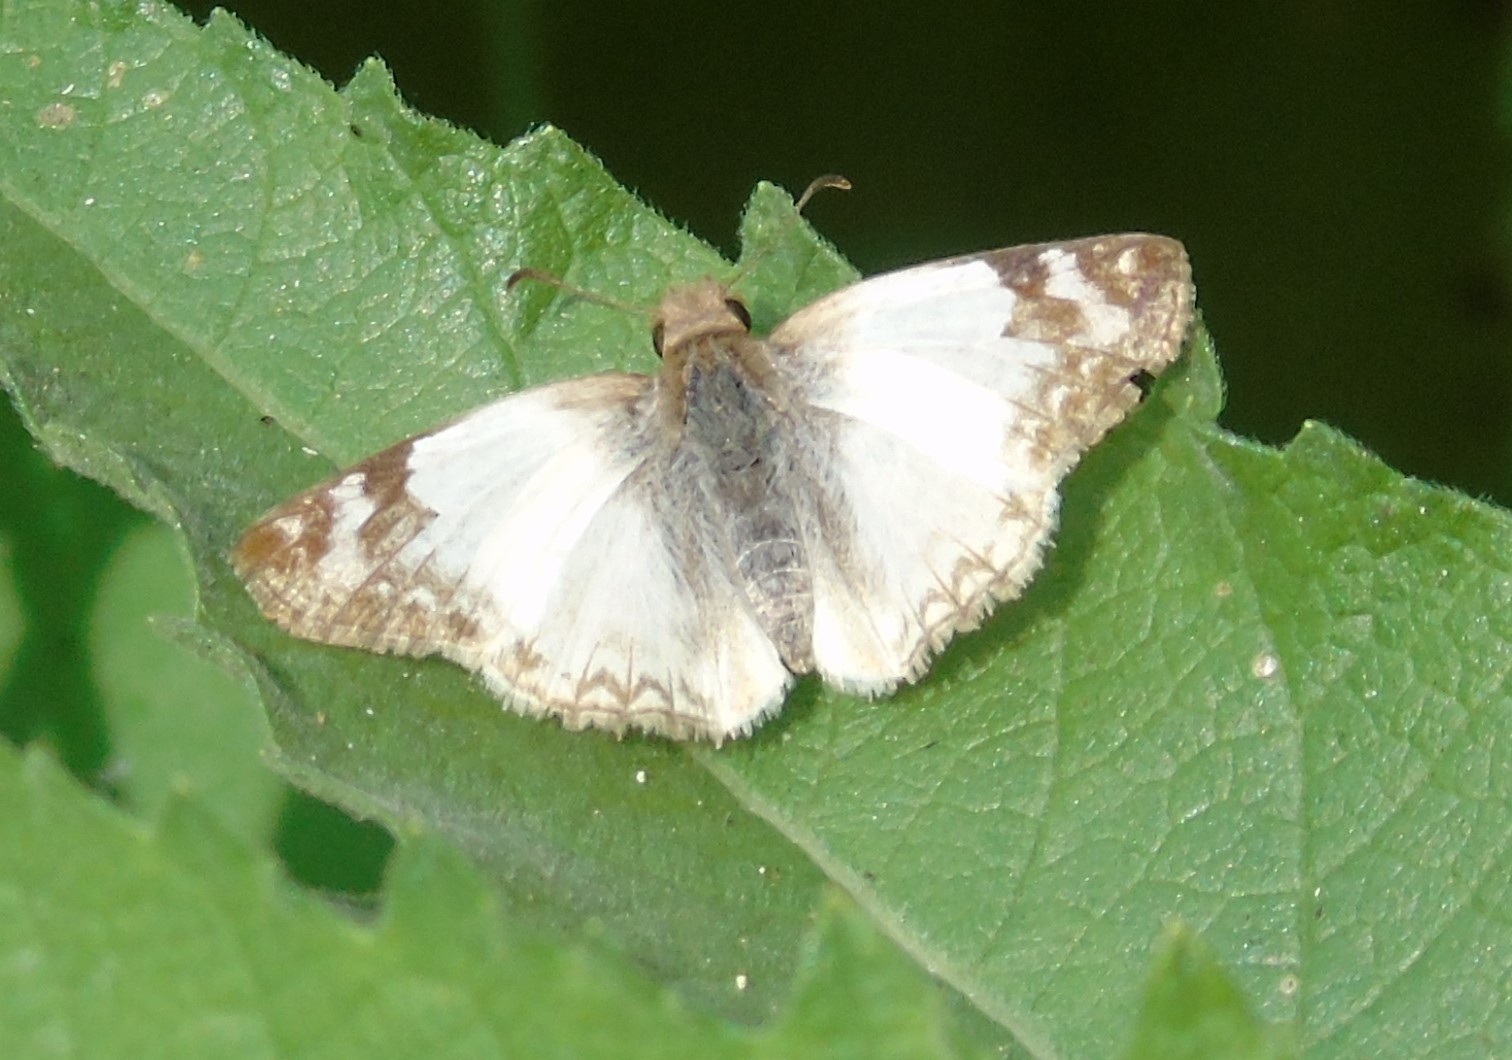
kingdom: Animalia
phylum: Arthropoda
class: Insecta
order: Lepidoptera
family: Hesperiidae
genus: Heliopetes
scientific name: Heliopetes laviana
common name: Laviana white-skipper
